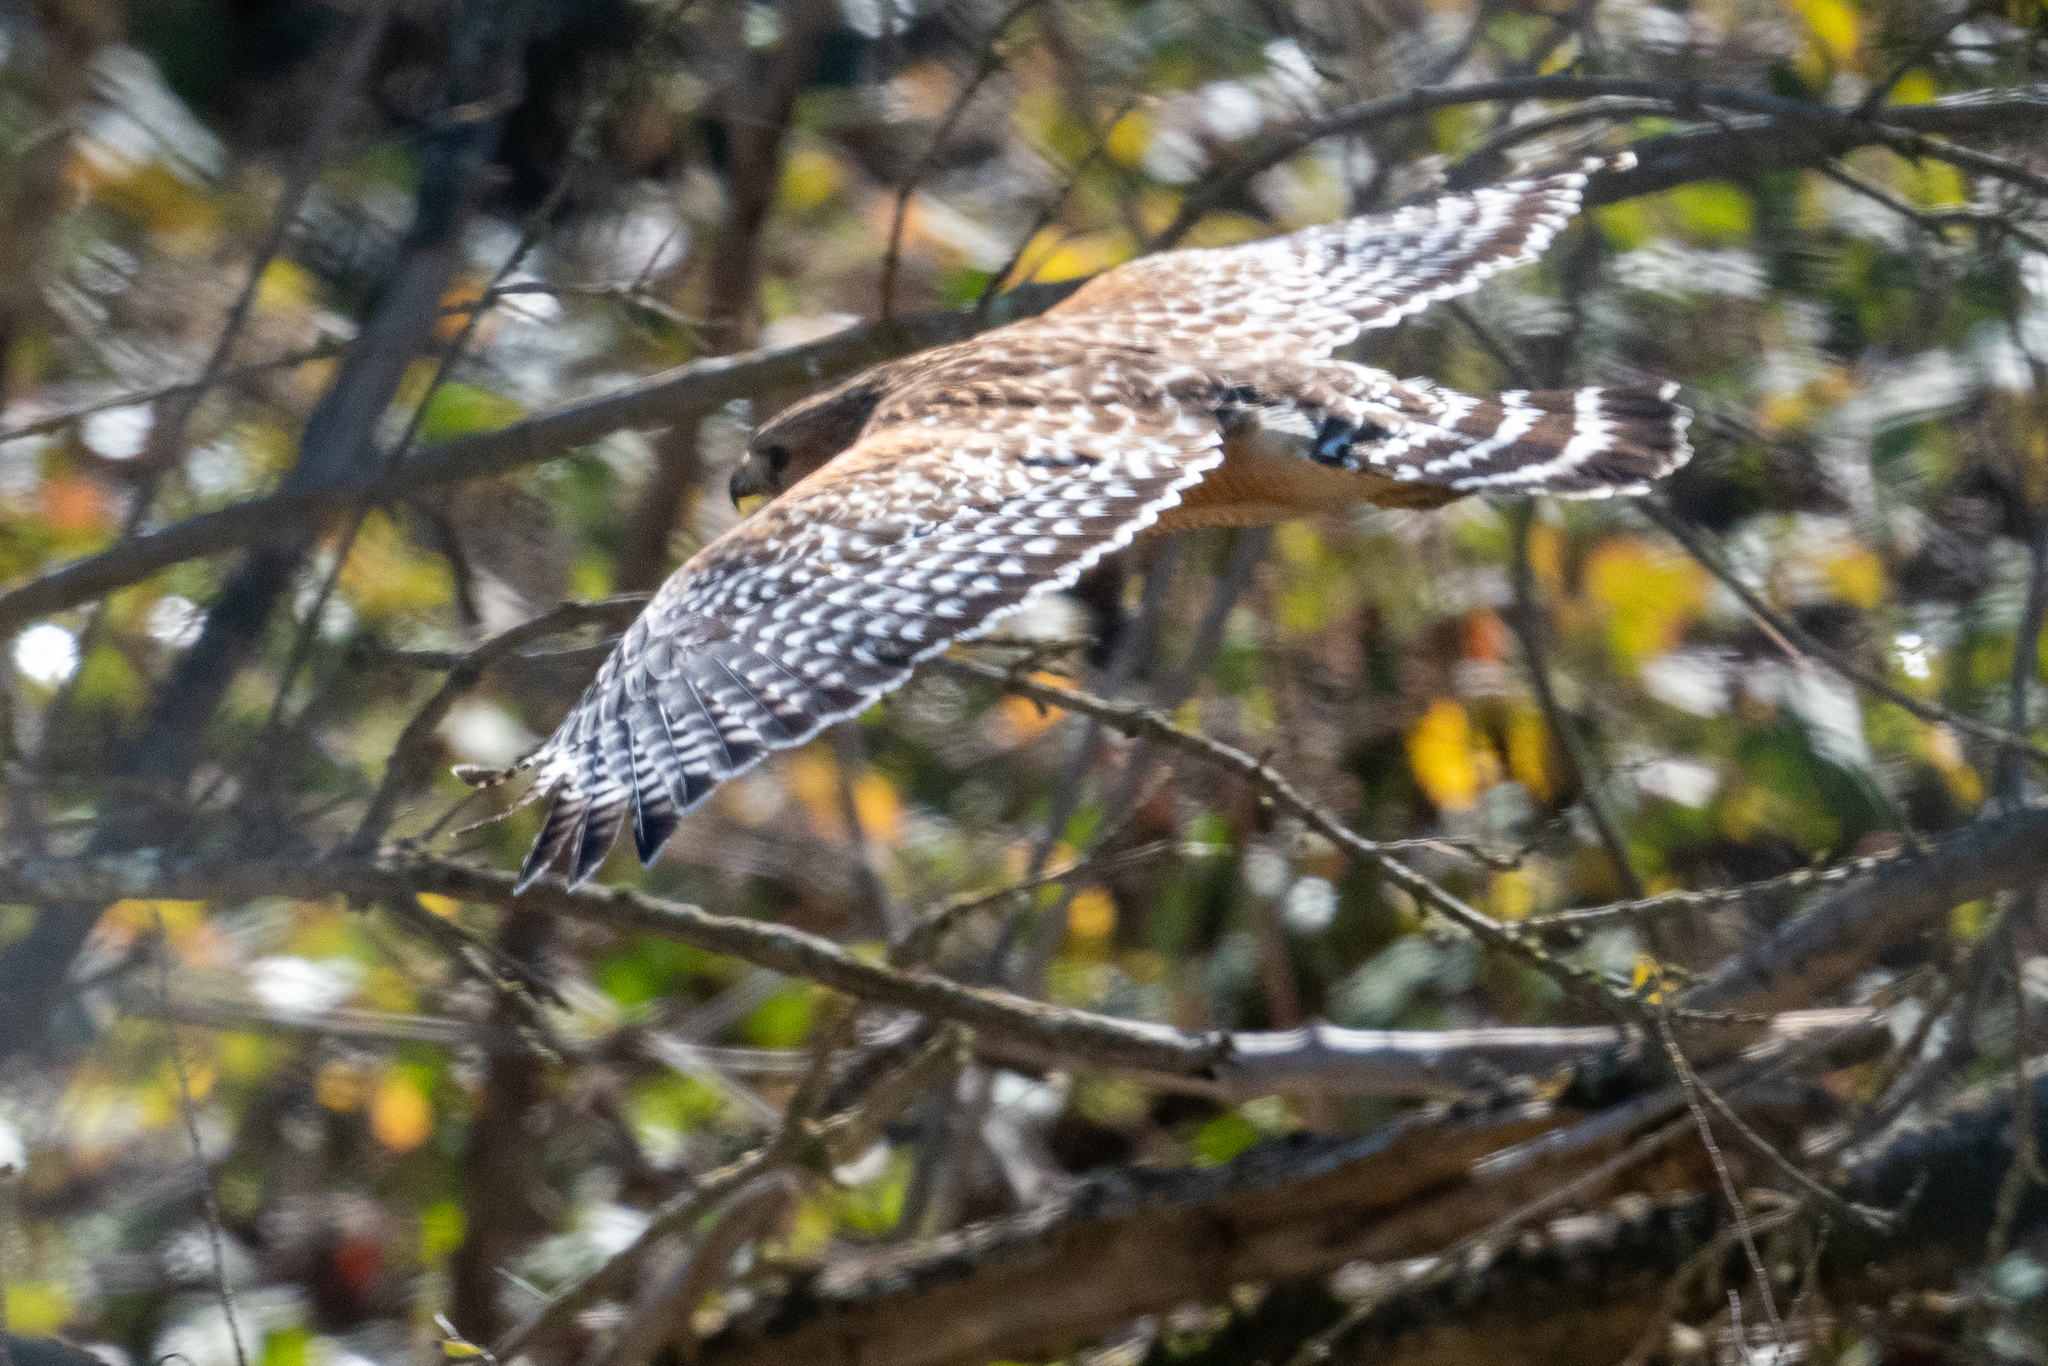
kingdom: Animalia
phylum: Chordata
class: Aves
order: Accipitriformes
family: Accipitridae
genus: Buteo
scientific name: Buteo lineatus
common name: Red-shouldered hawk
